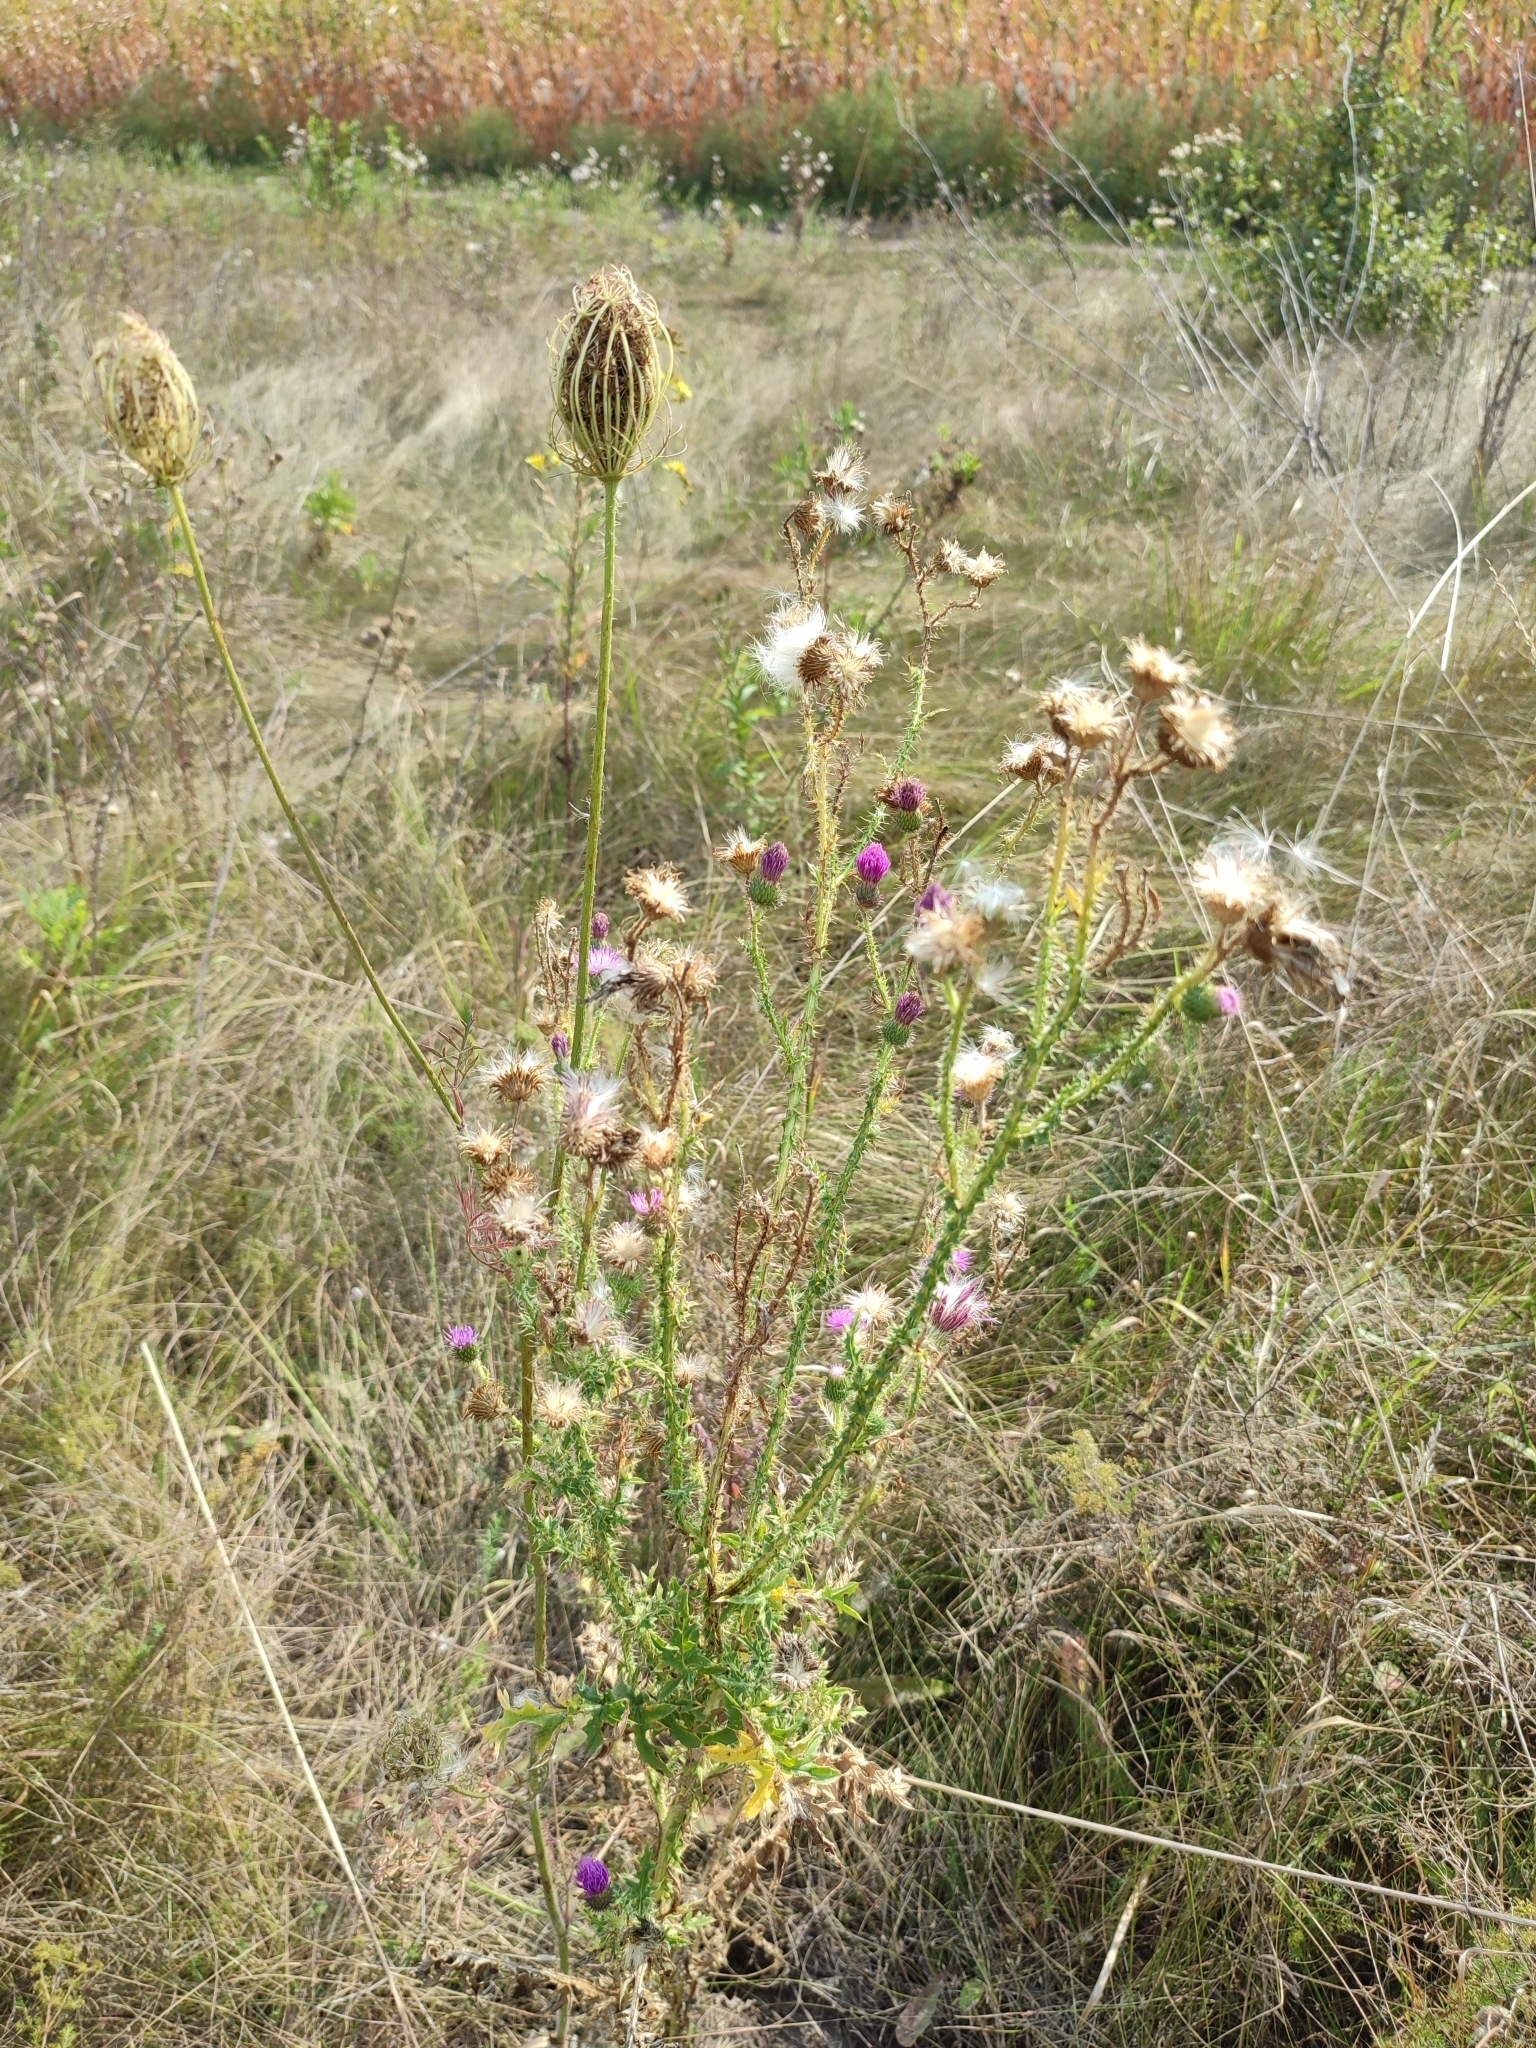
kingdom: Plantae
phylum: Tracheophyta
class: Magnoliopsida
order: Asterales
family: Asteraceae
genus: Carduus
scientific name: Carduus acanthoides
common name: Plumeless thistle
